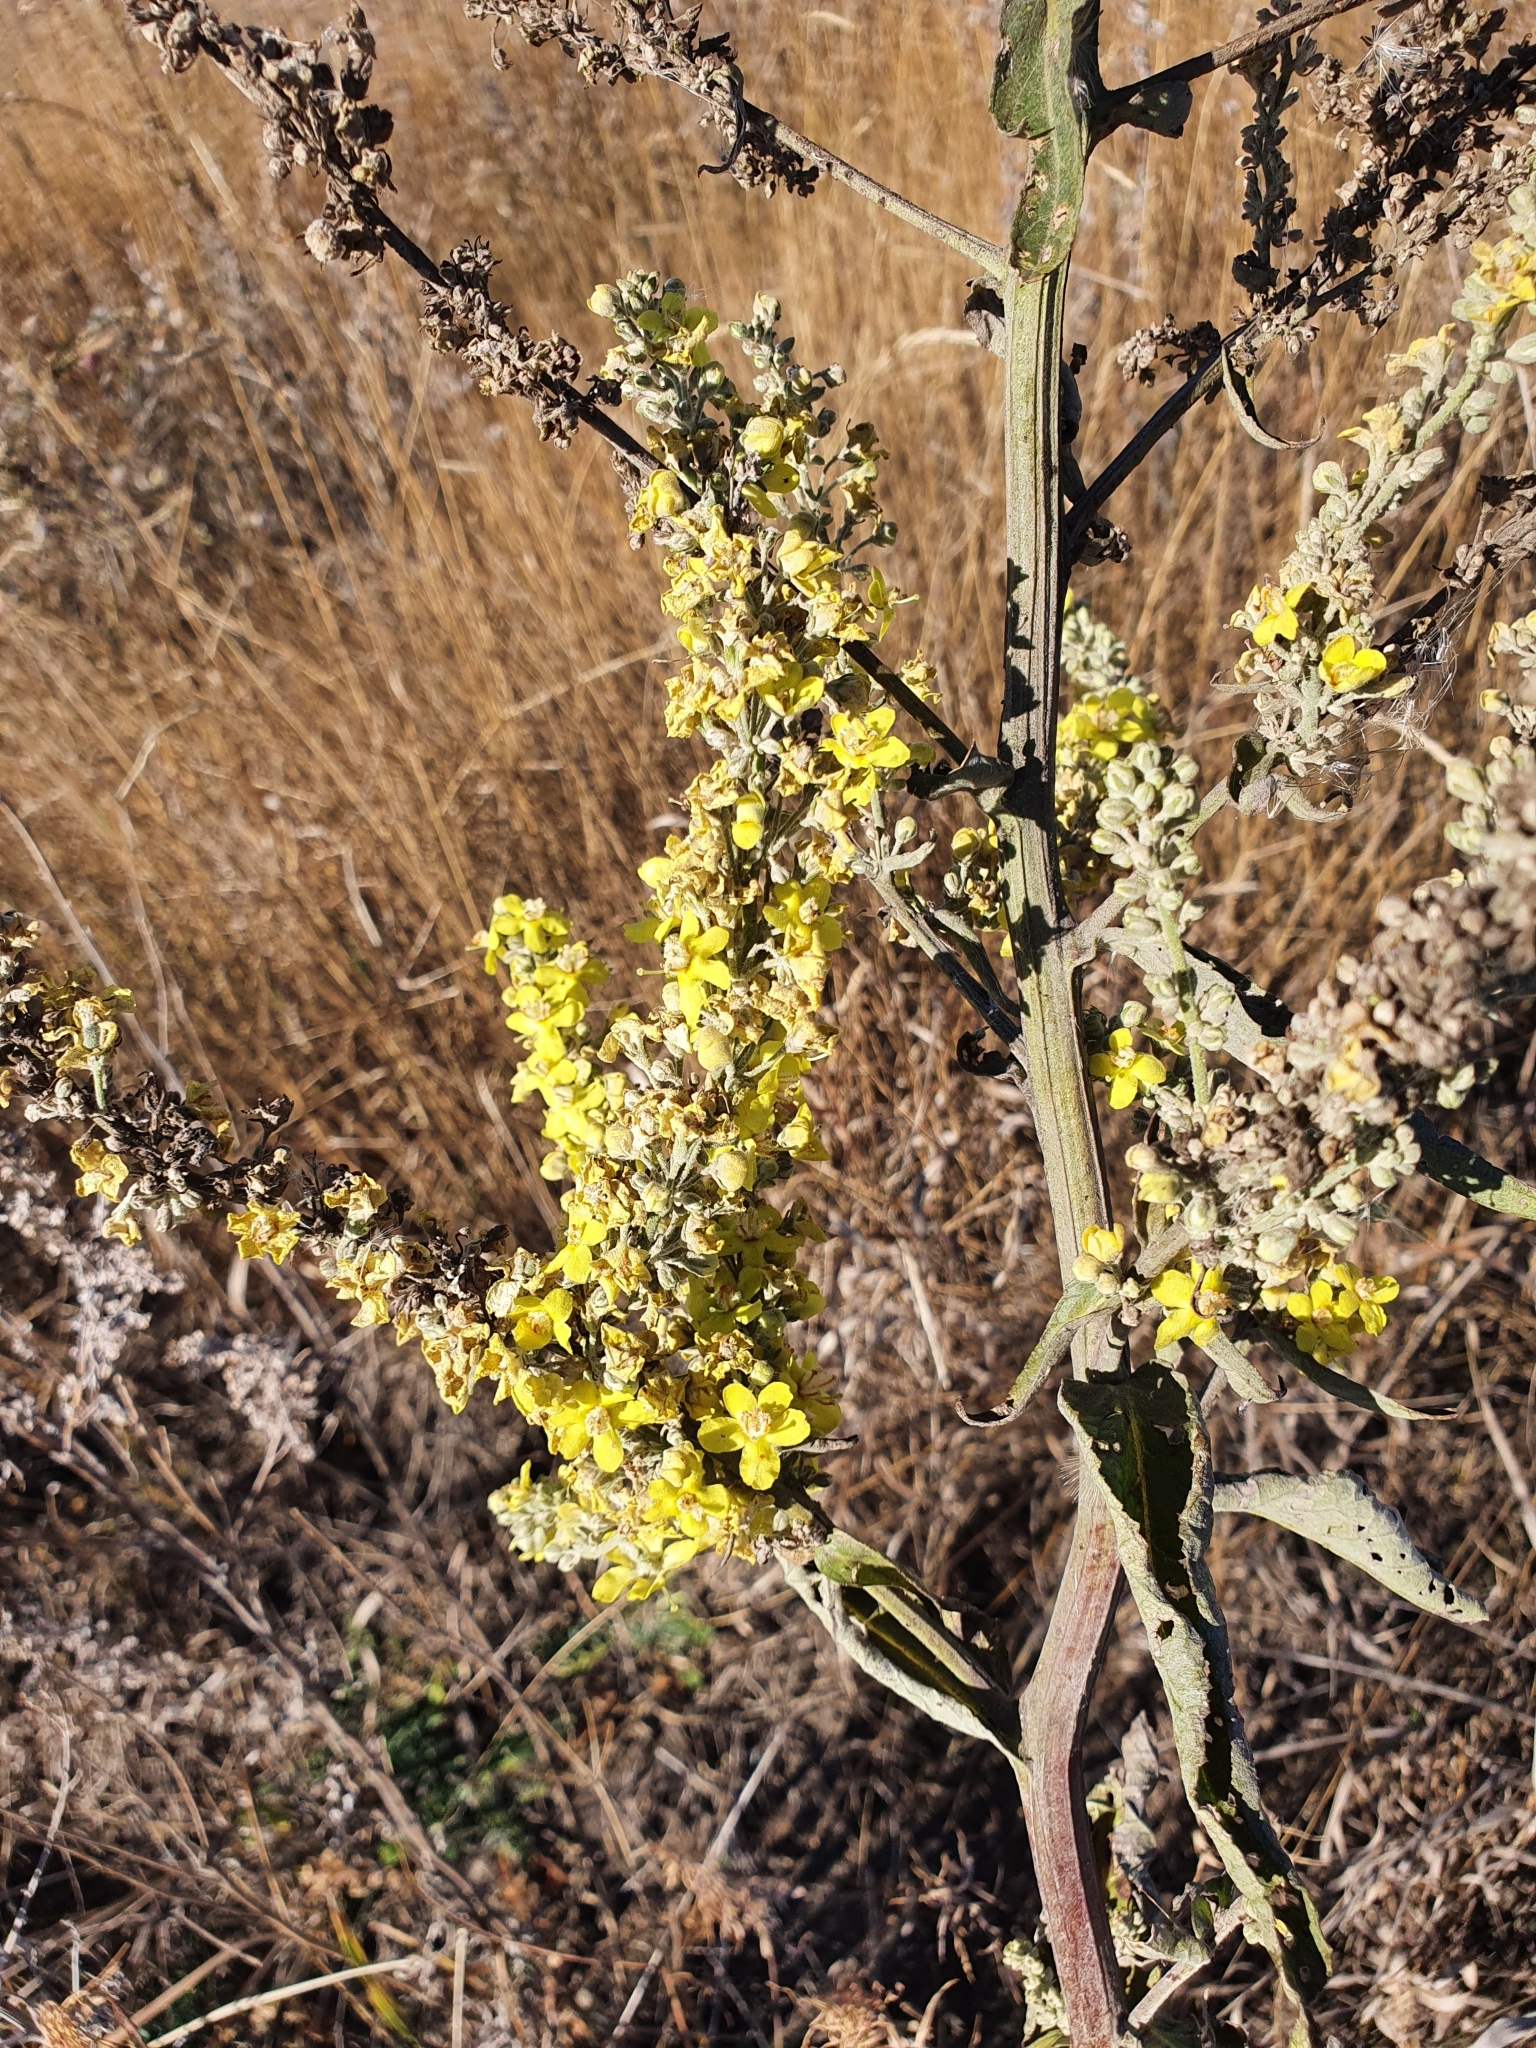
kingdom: Plantae
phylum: Tracheophyta
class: Magnoliopsida
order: Lamiales
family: Scrophulariaceae
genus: Verbascum
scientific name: Verbascum lychnitis
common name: White mullein
